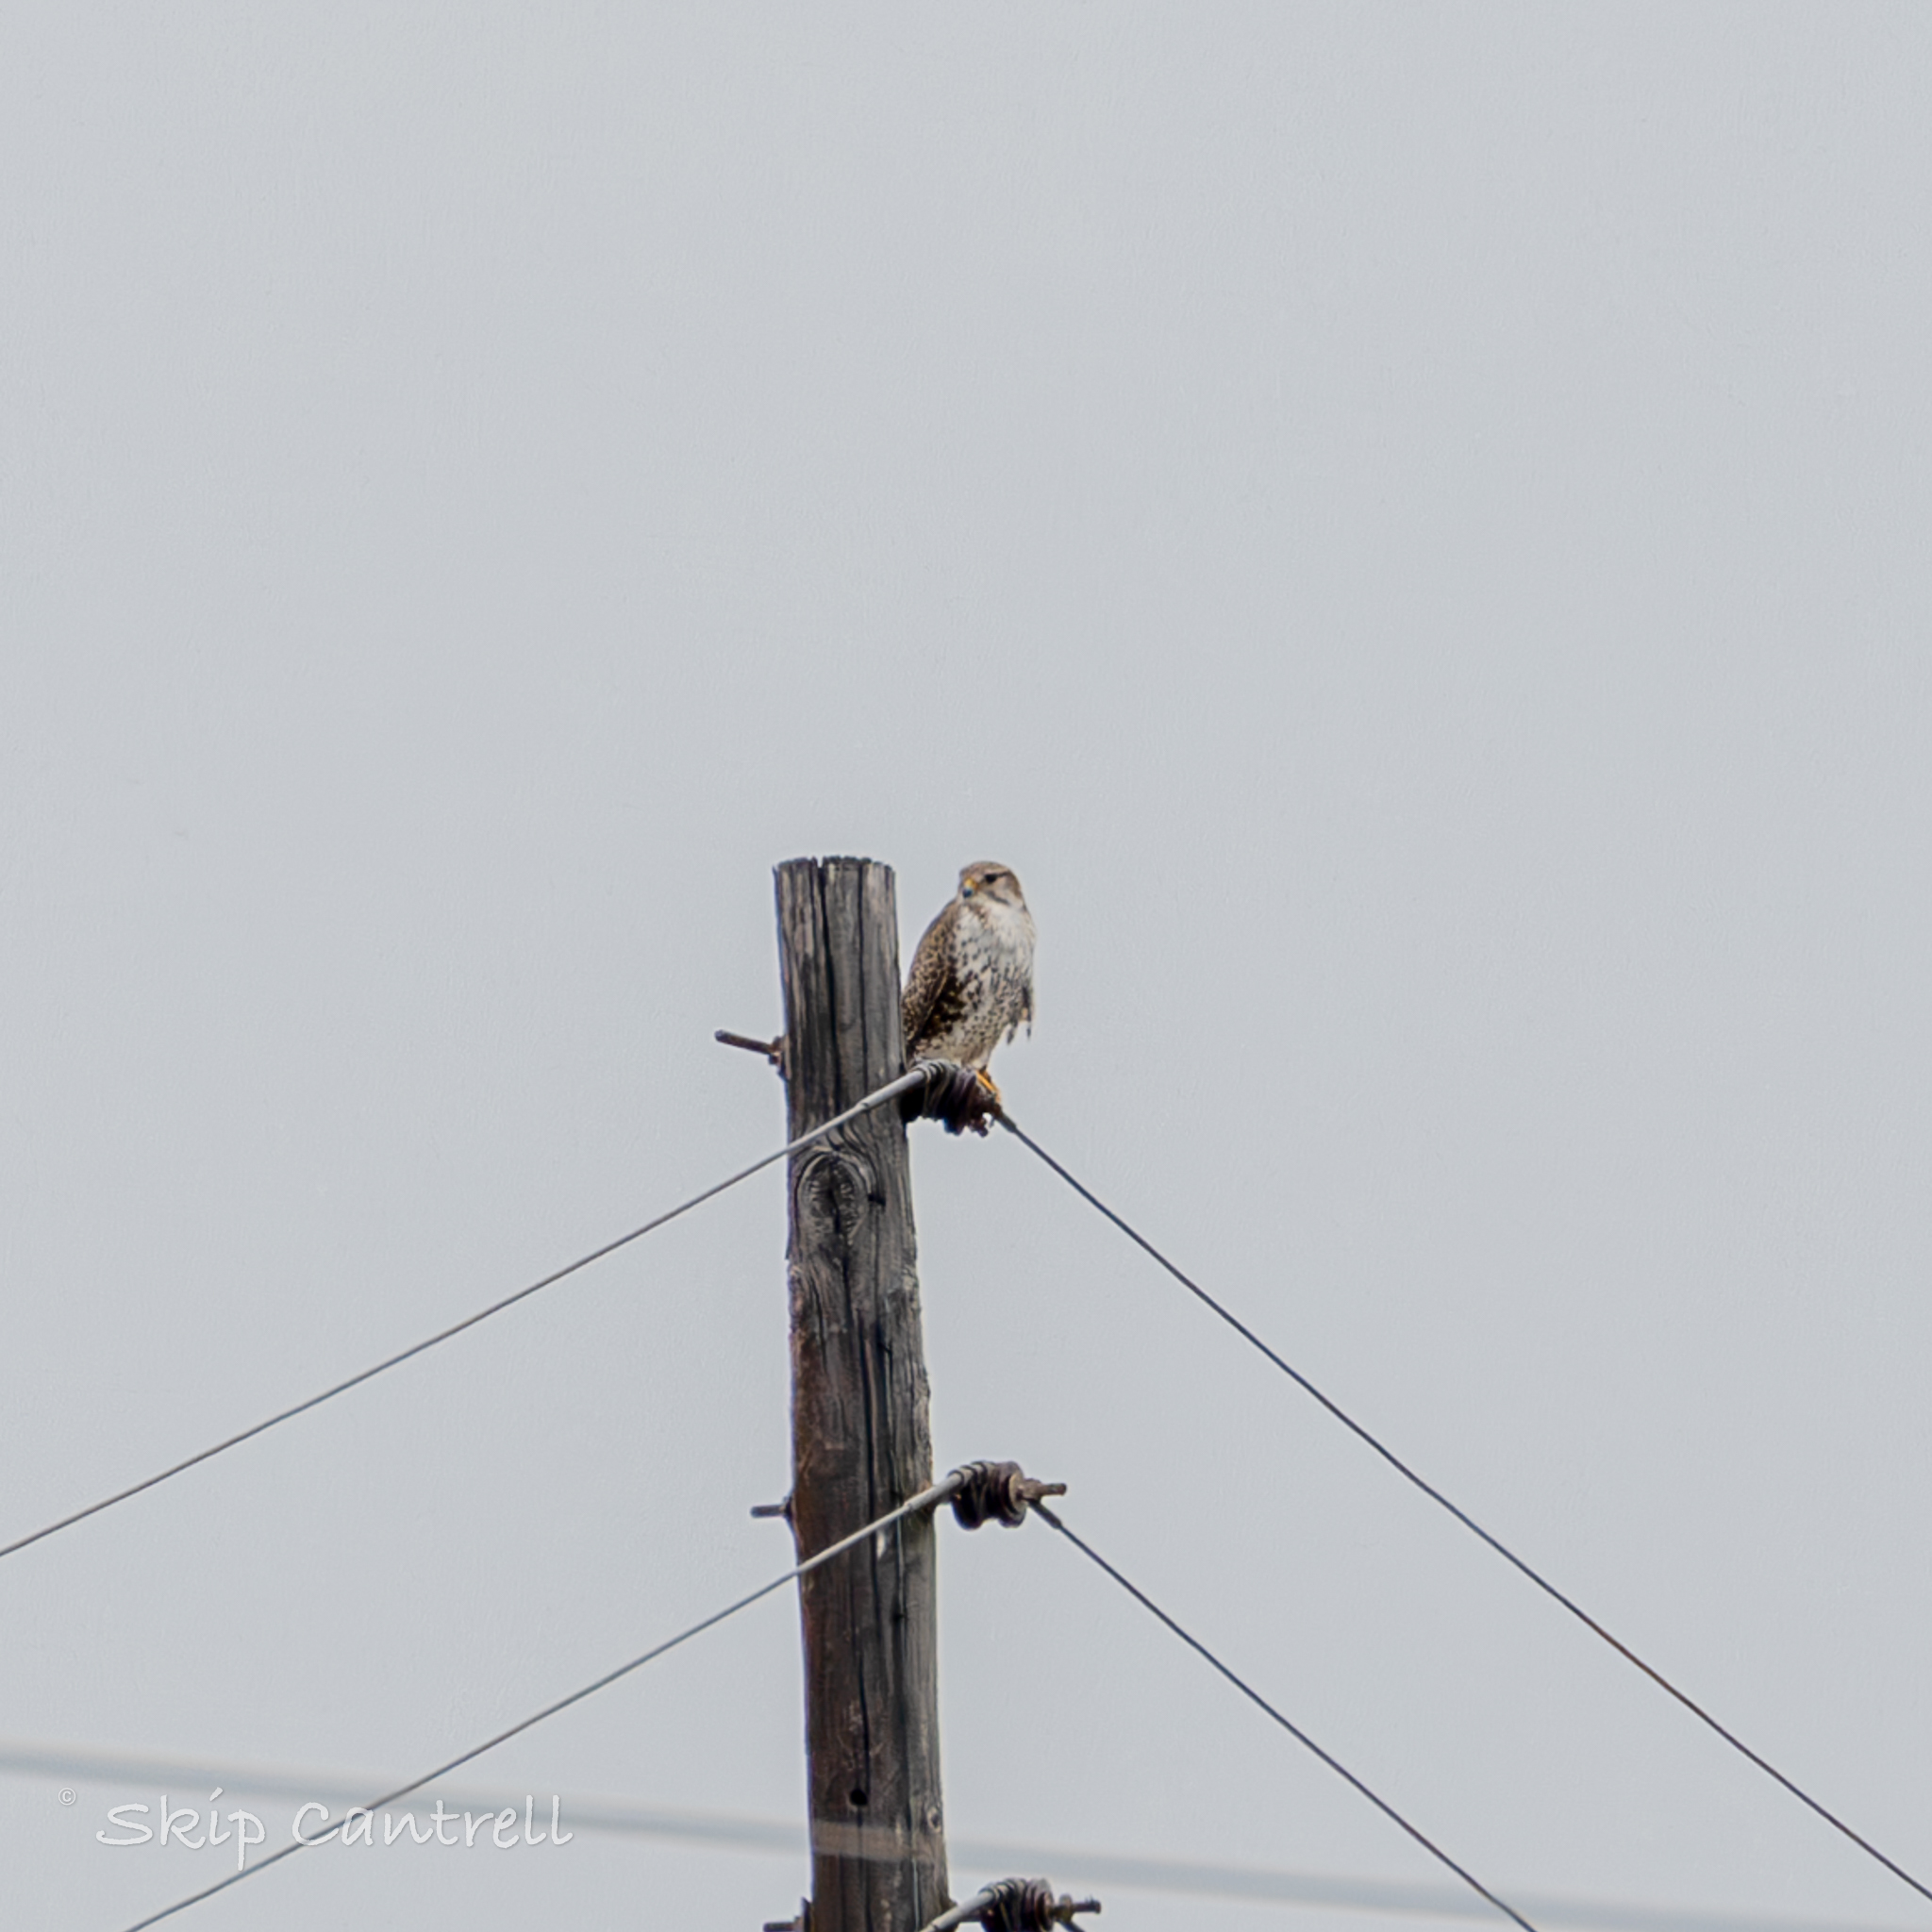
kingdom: Animalia
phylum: Chordata
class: Aves
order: Falconiformes
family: Falconidae
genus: Falco
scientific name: Falco mexicanus
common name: Prairie falcon
